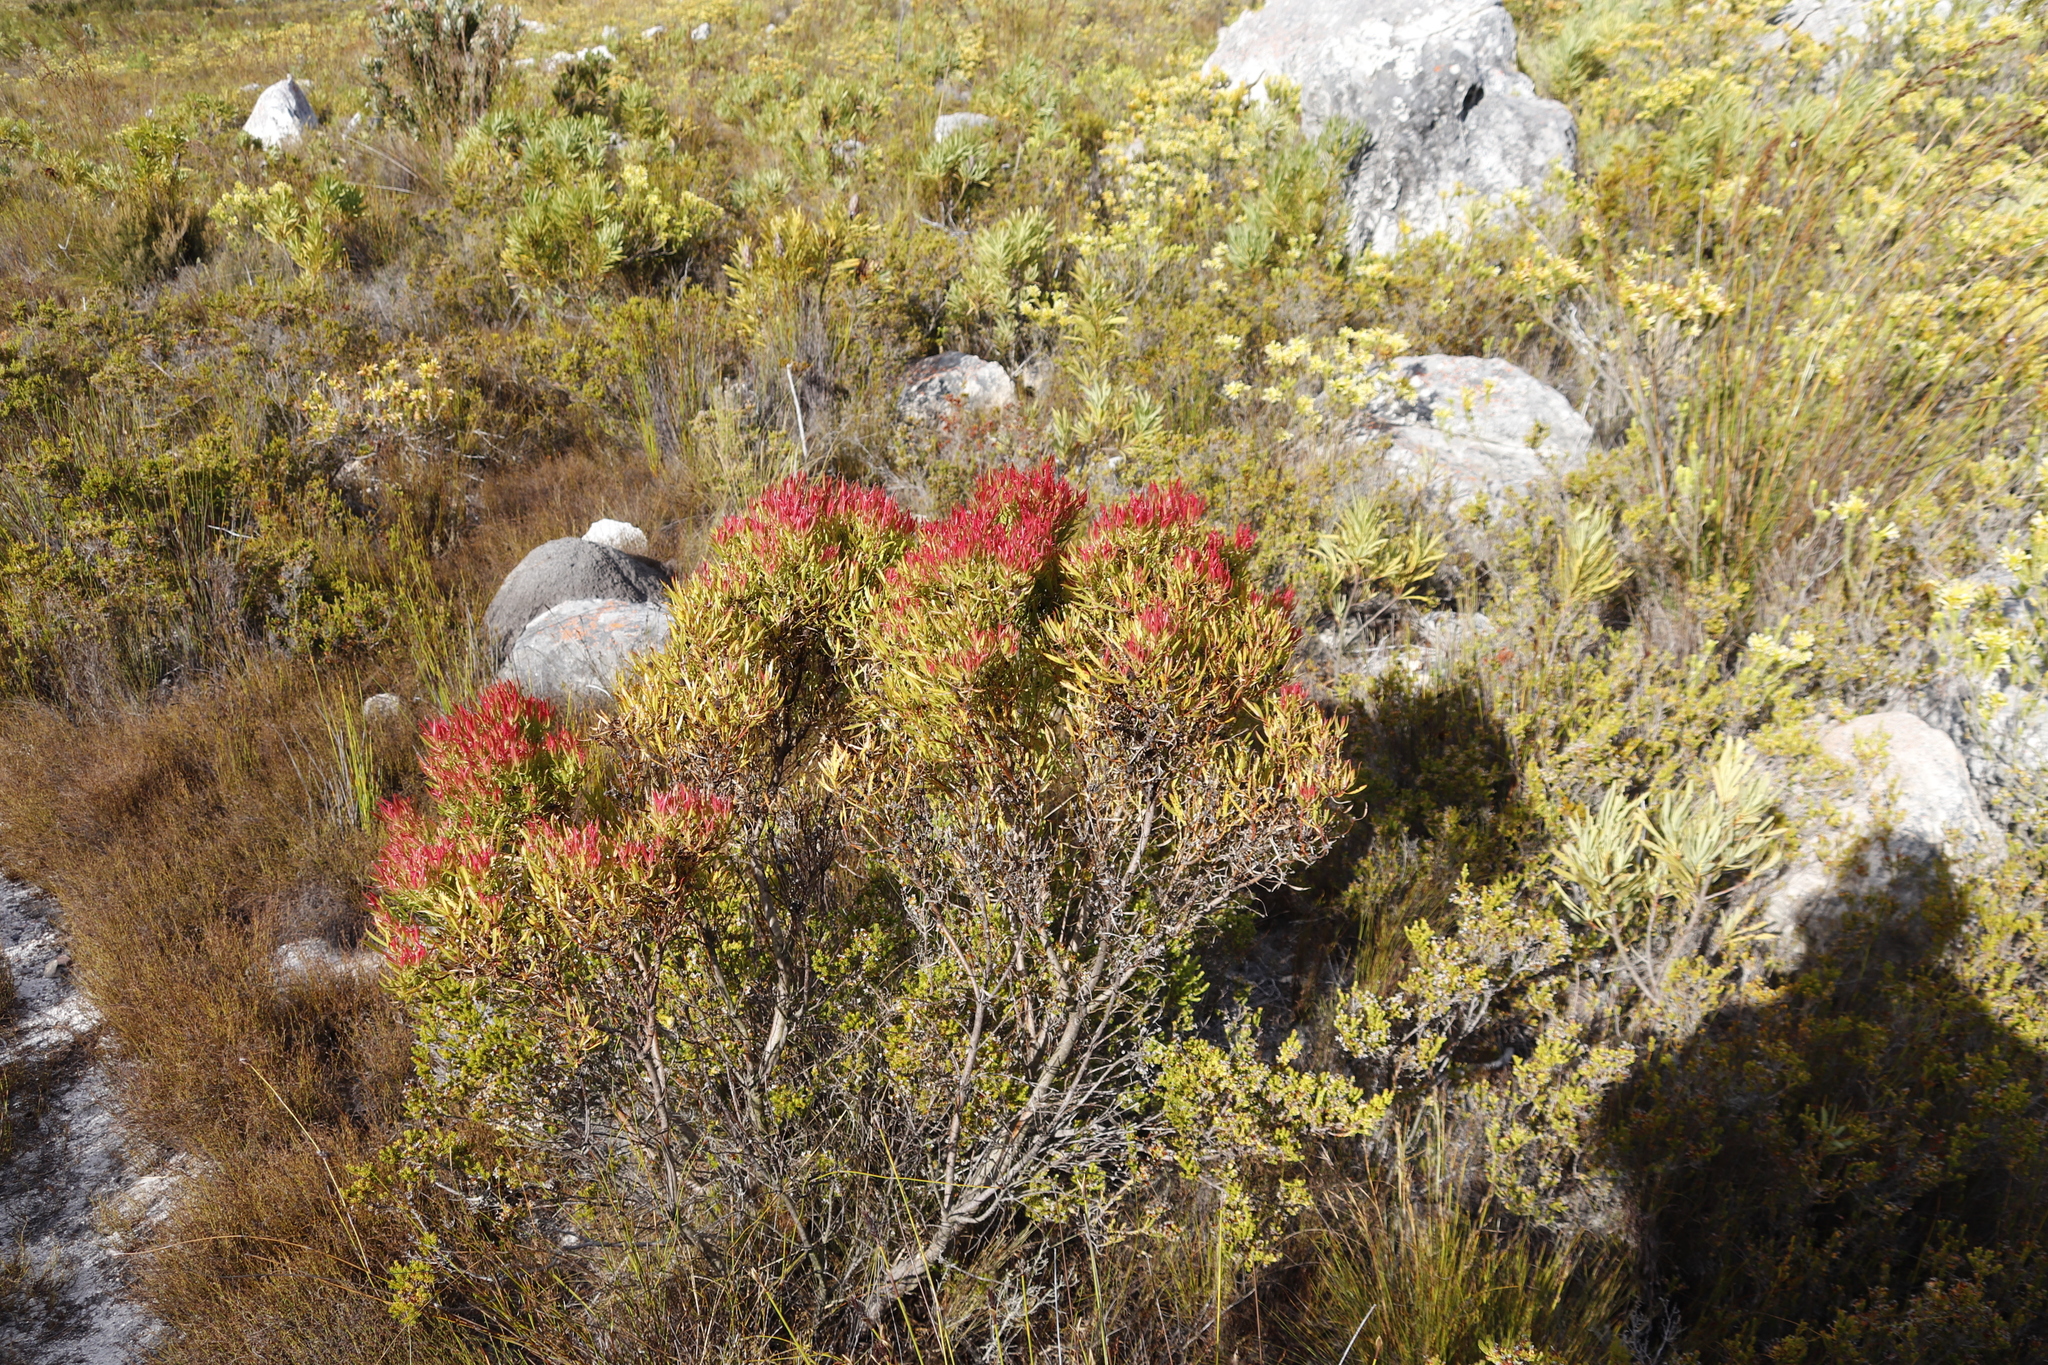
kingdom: Plantae
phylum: Tracheophyta
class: Magnoliopsida
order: Proteales
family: Proteaceae
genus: Leucadendron
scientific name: Leucadendron spissifolium
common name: Spear-leaf conebush
